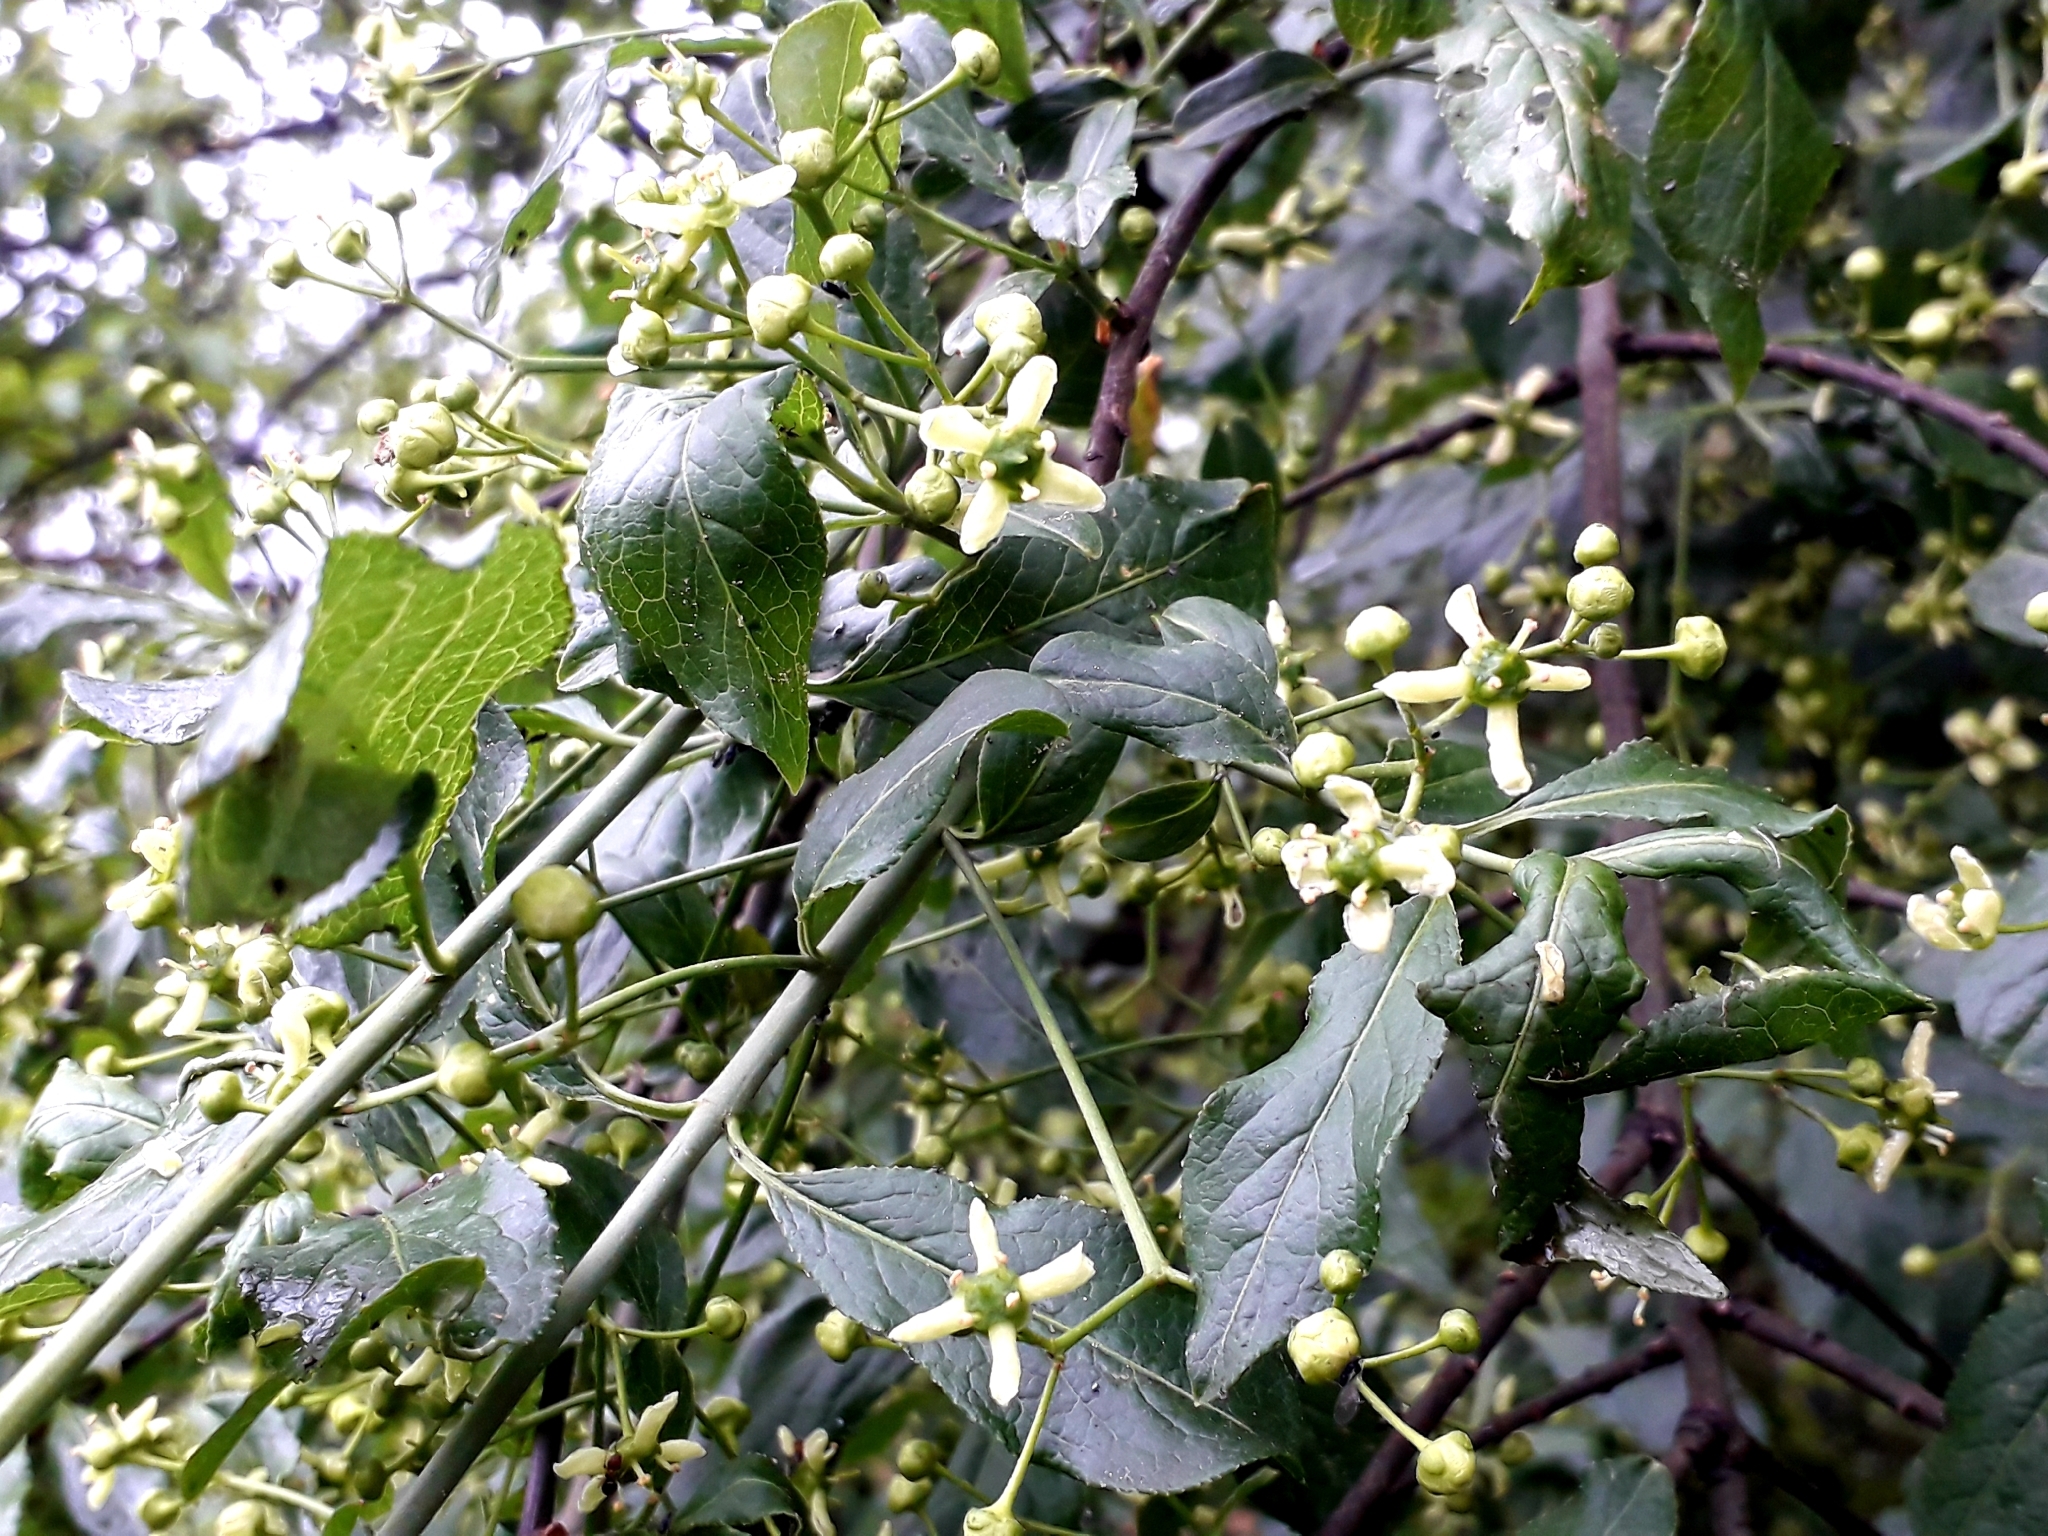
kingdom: Plantae
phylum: Tracheophyta
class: Magnoliopsida
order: Celastrales
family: Celastraceae
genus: Euonymus
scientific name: Euonymus europaeus
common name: Spindle
